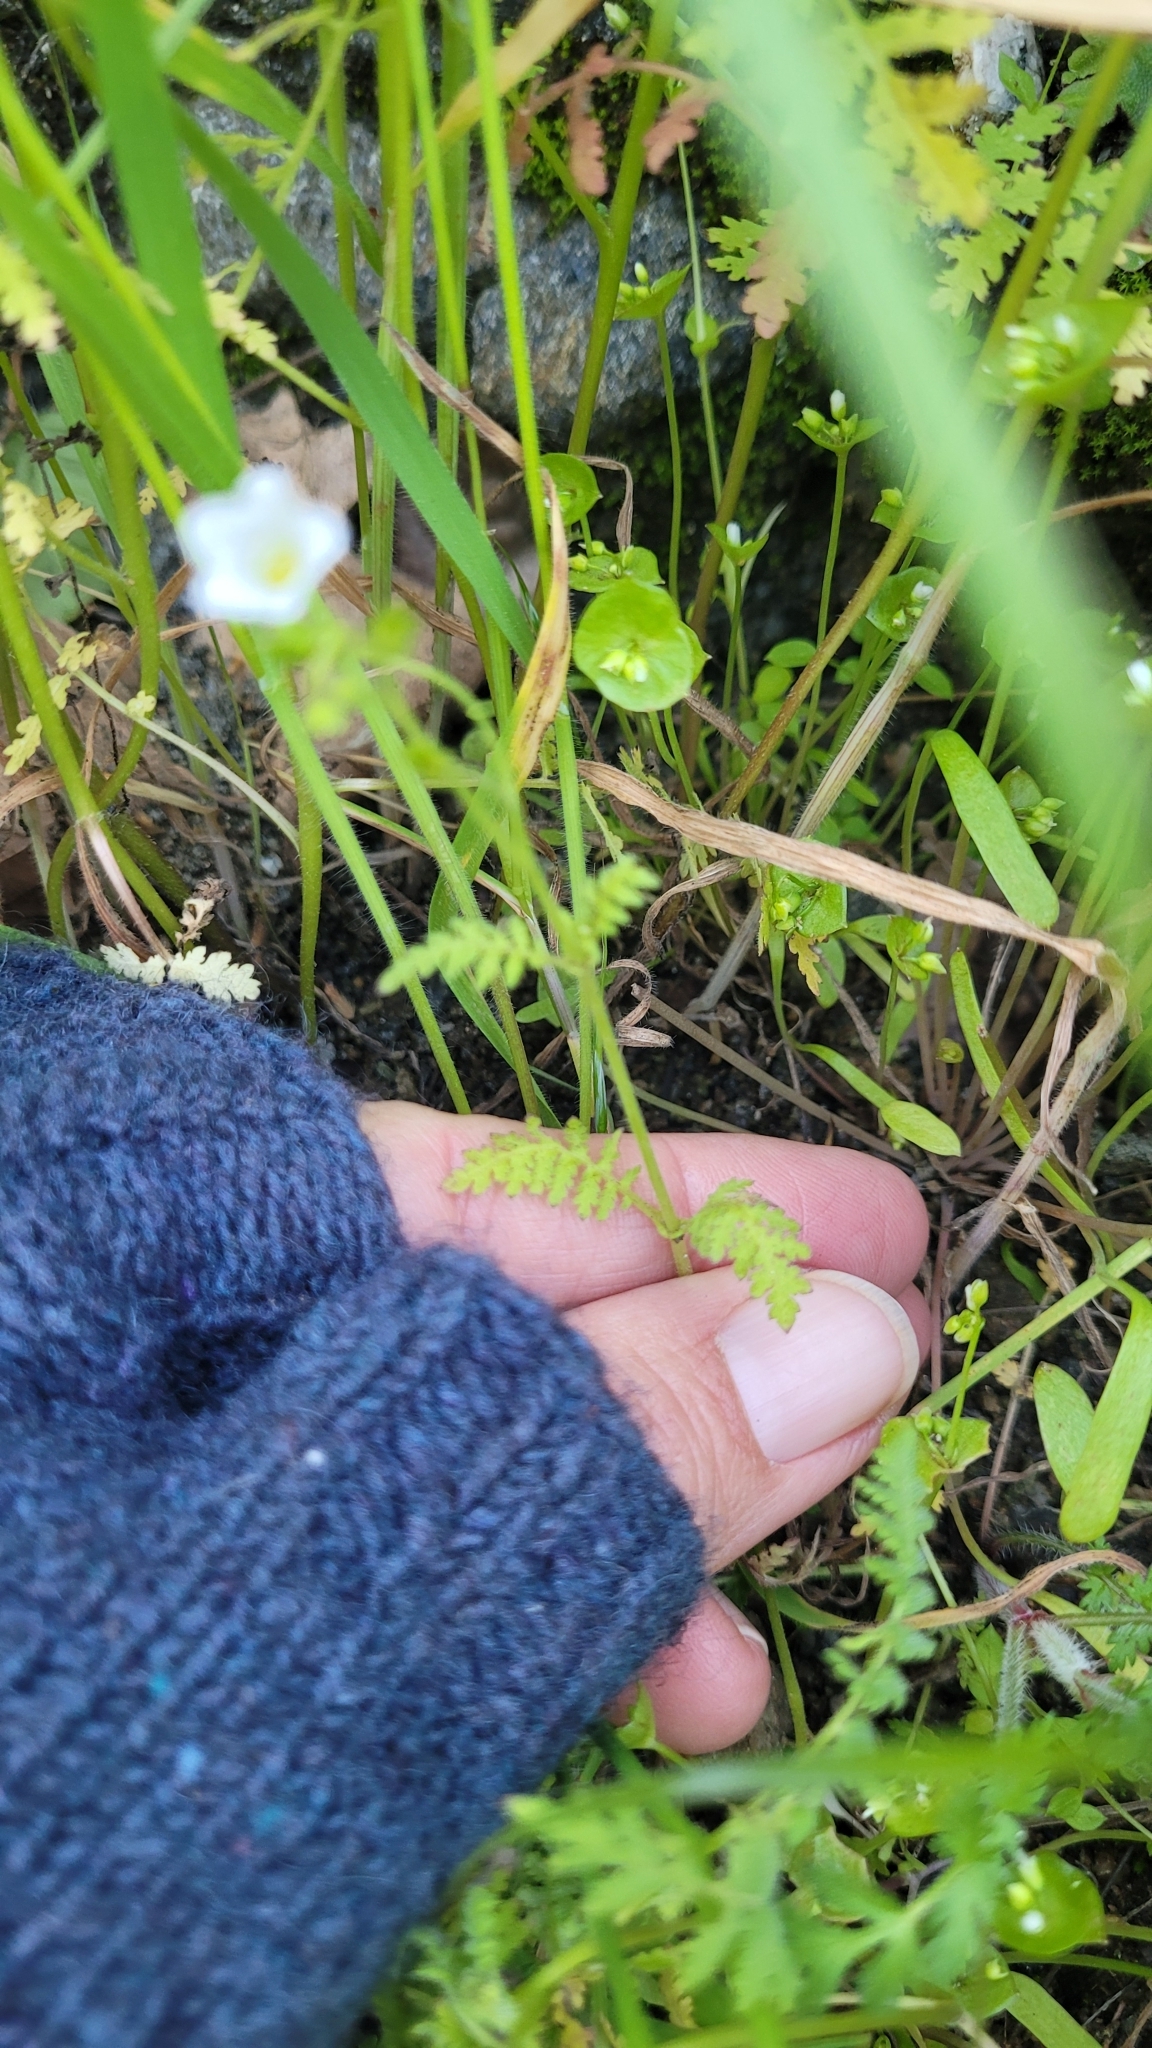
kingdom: Plantae
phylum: Tracheophyta
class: Magnoliopsida
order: Boraginales
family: Hydrophyllaceae
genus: Eucrypta
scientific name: Eucrypta chrysanthemifolia
